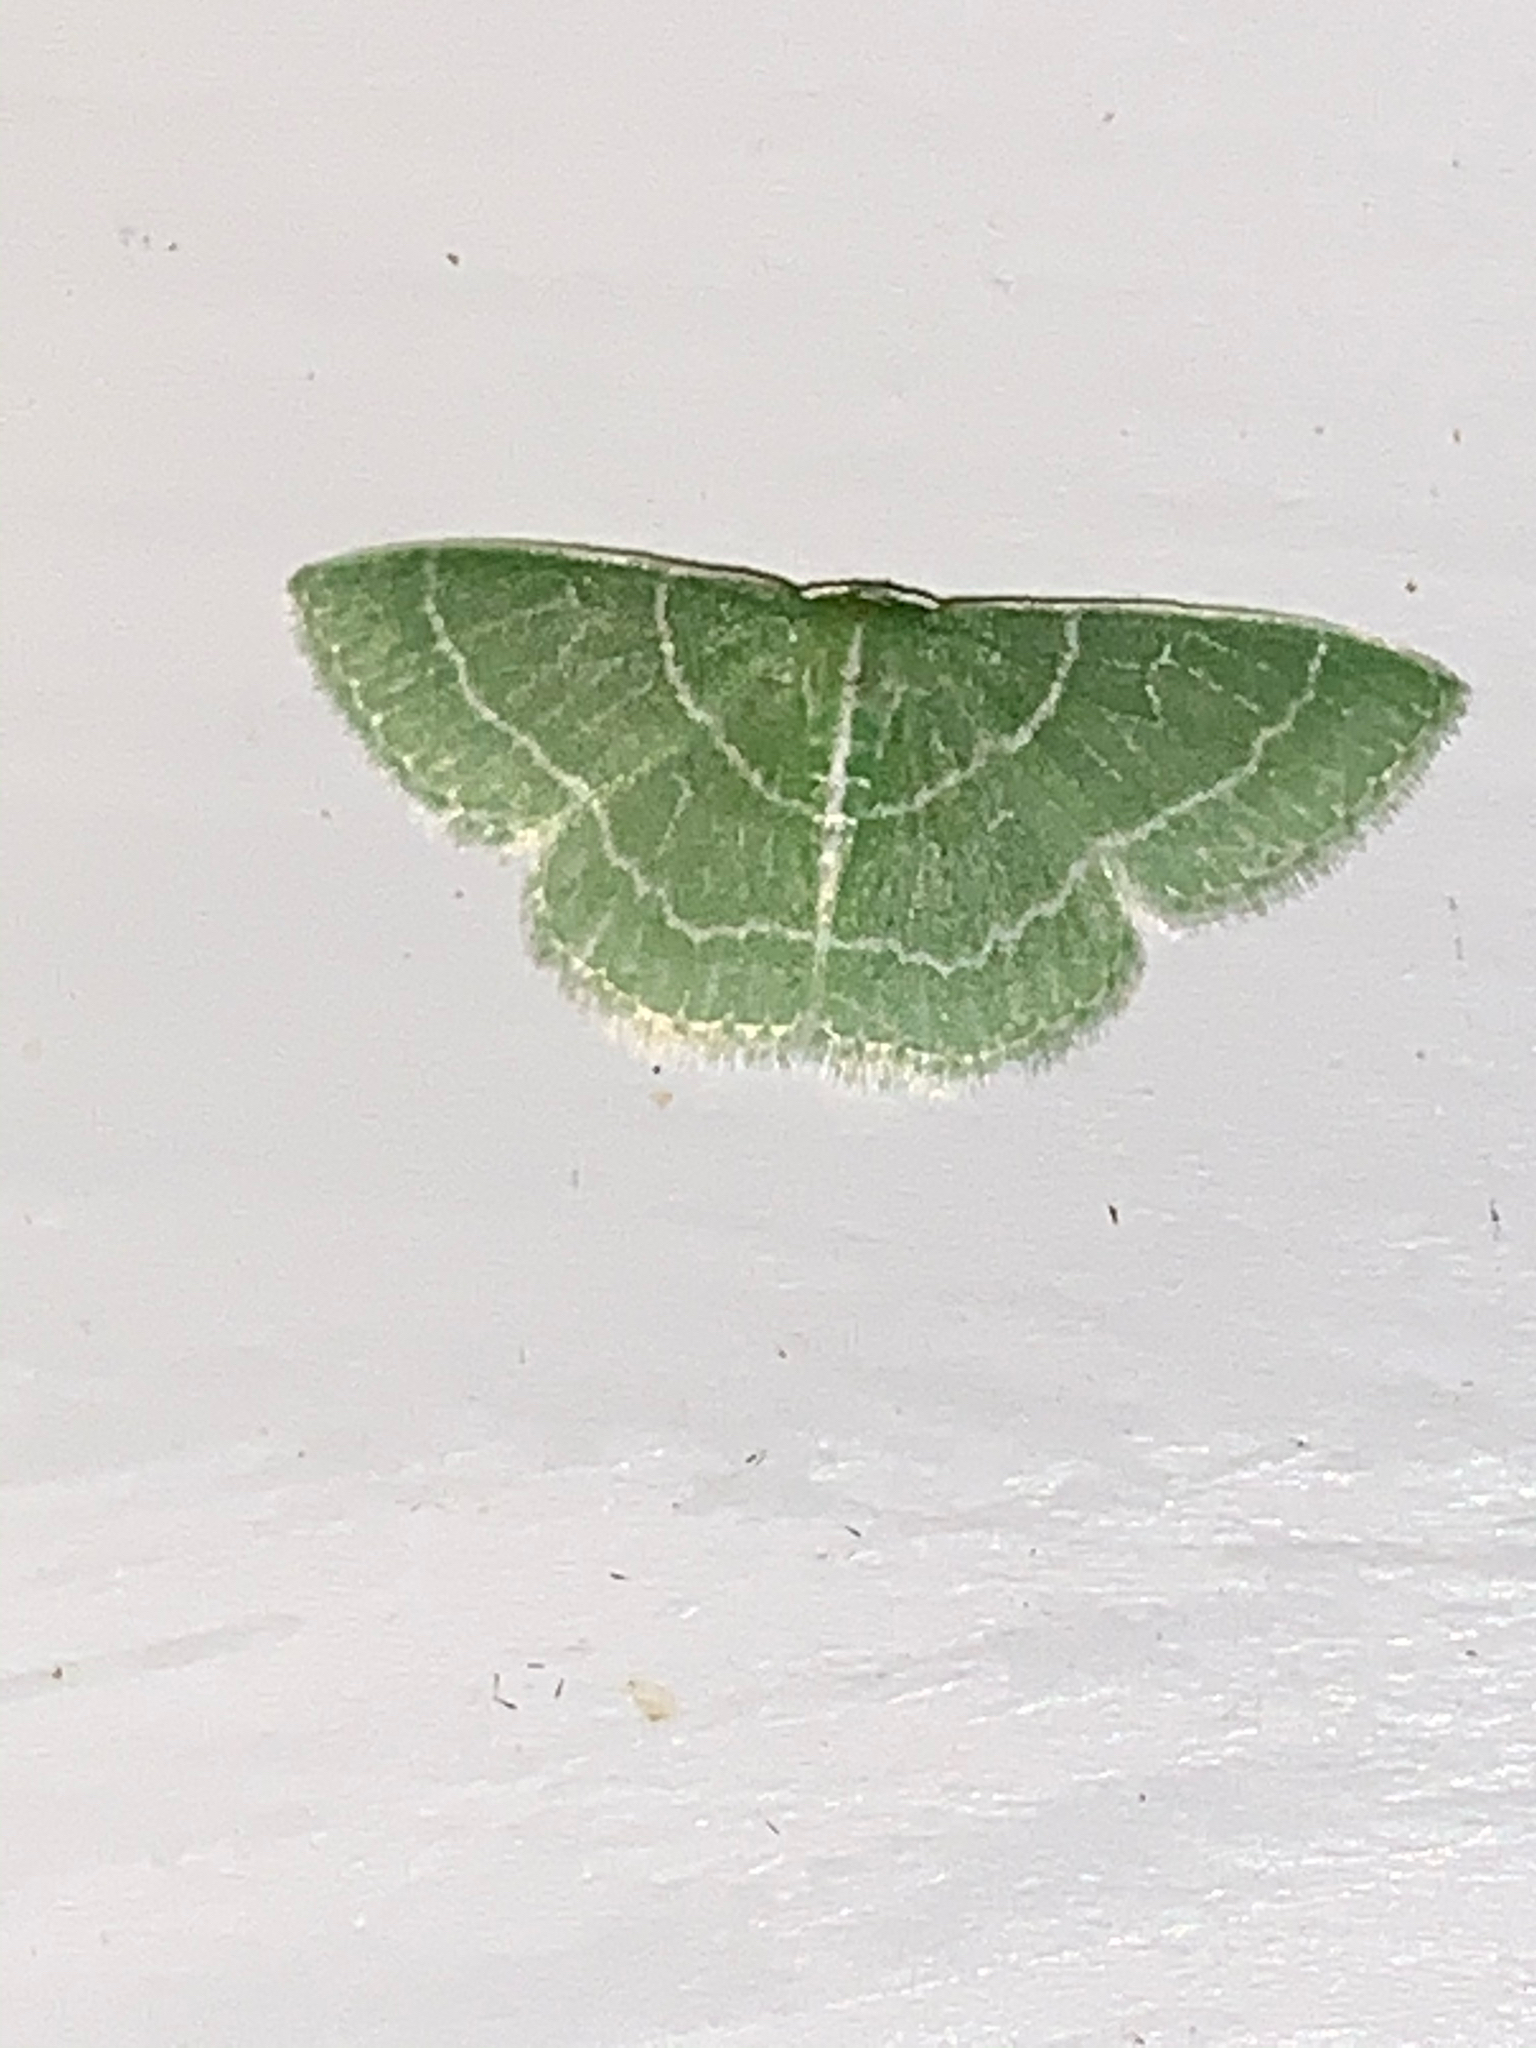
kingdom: Animalia
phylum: Arthropoda
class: Insecta
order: Lepidoptera
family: Geometridae
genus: Synchlora
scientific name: Synchlora aerata
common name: Wavy-lined emerald
